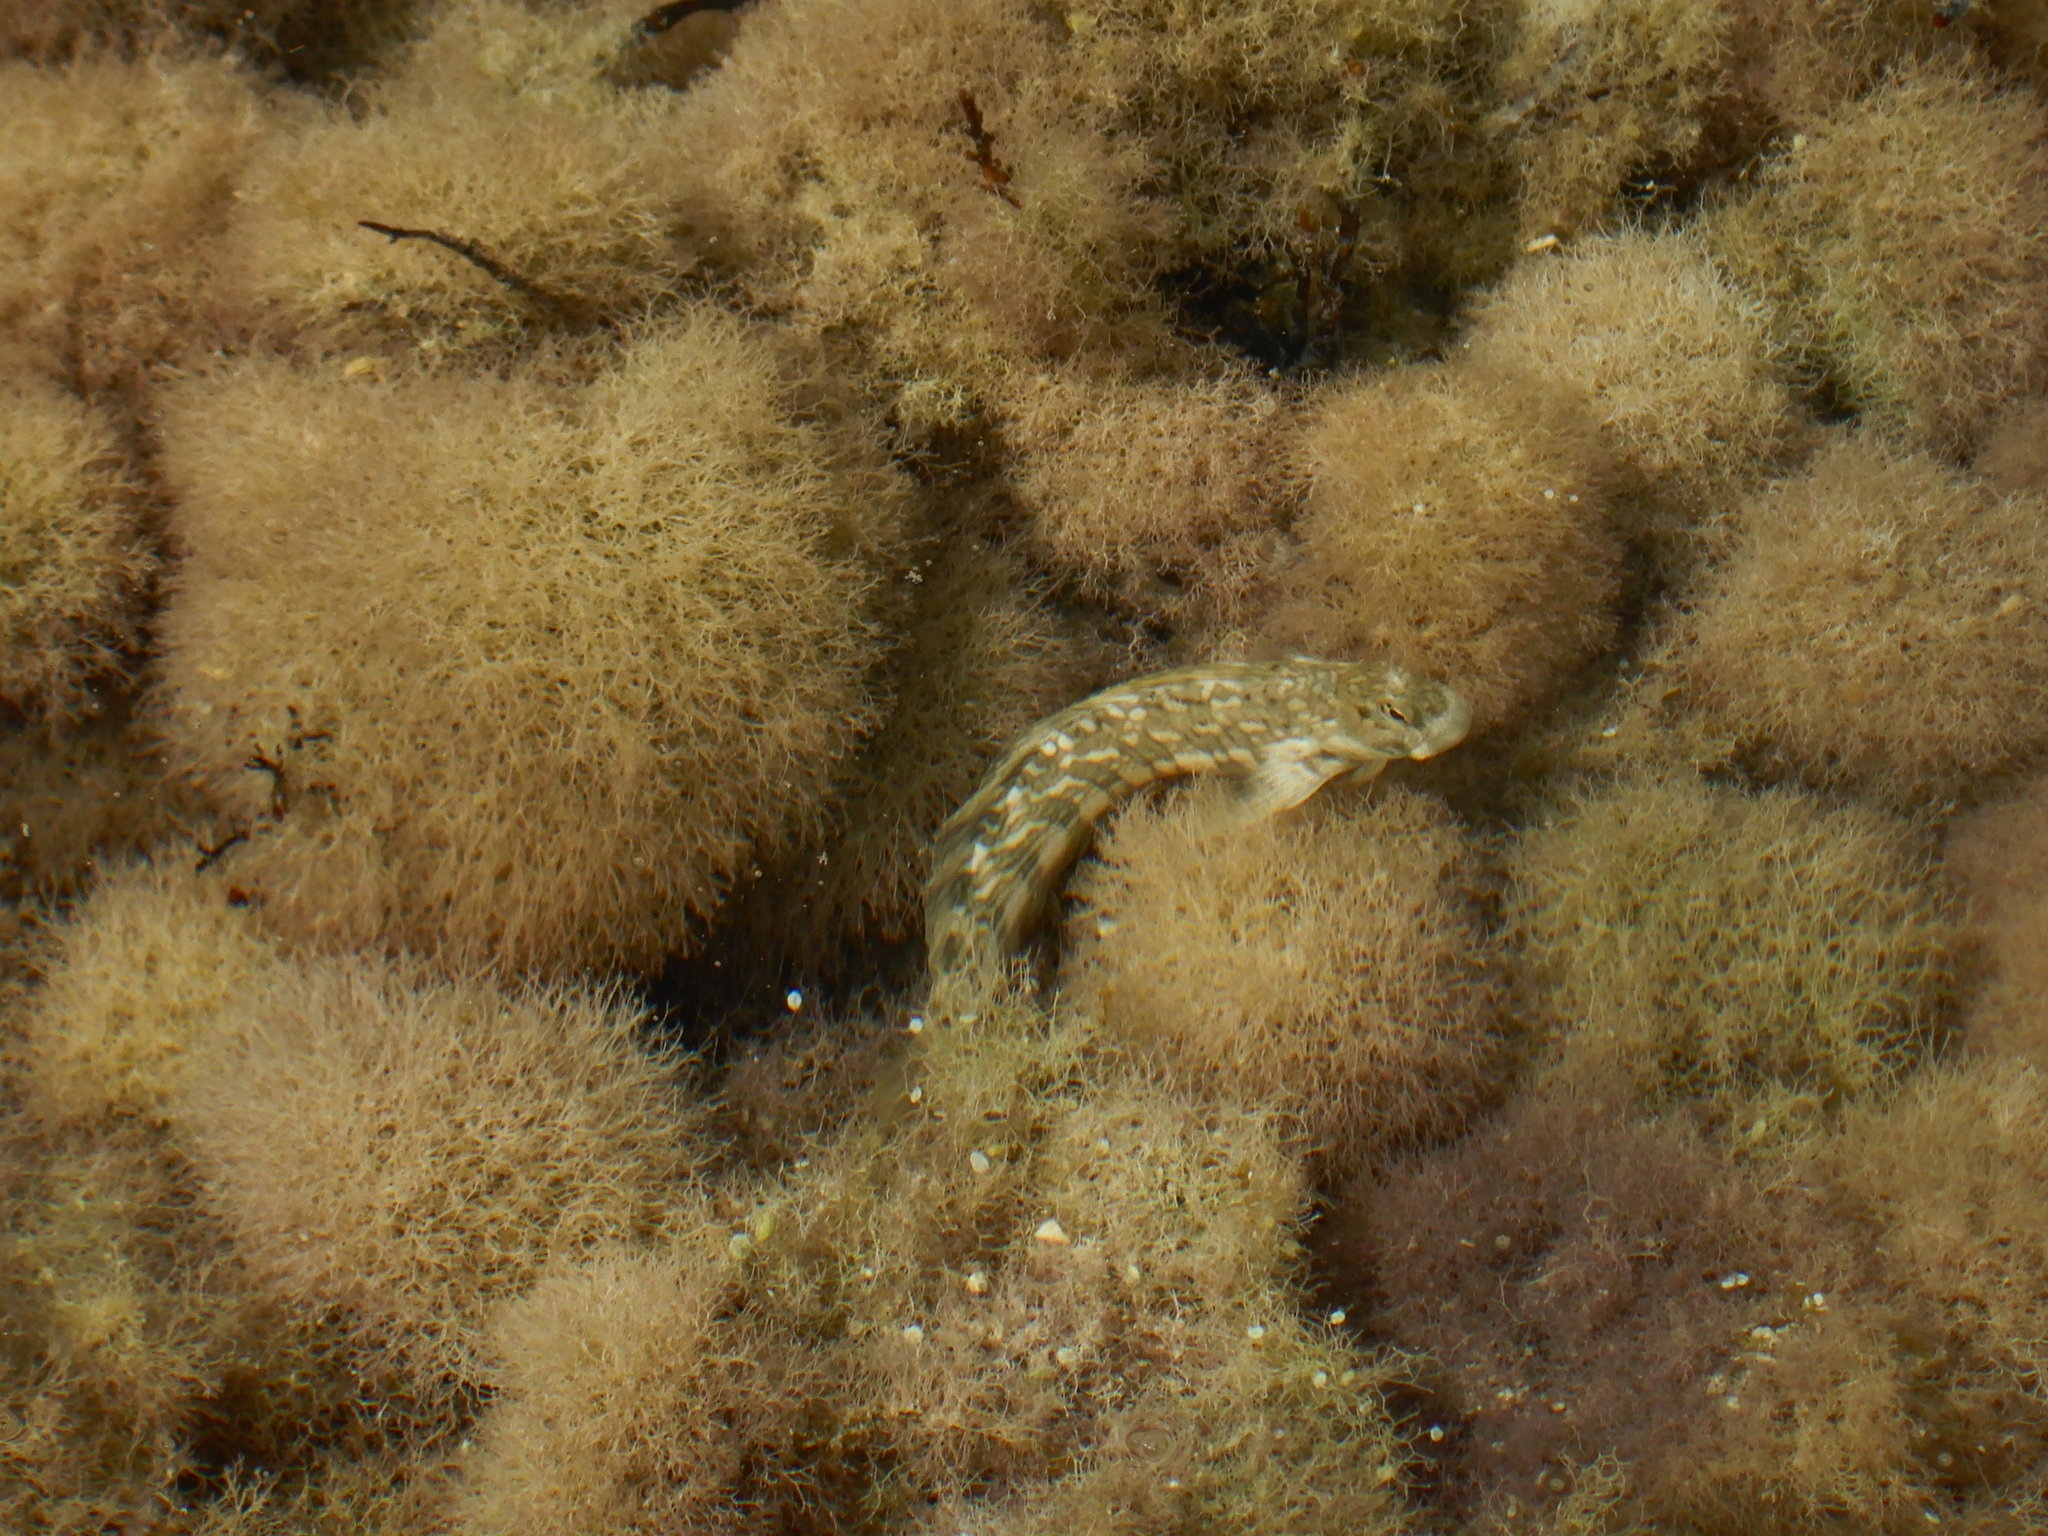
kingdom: Animalia
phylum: Chordata
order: Perciformes
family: Blenniidae
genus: Istiblennius
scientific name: Istiblennius rivulatus
